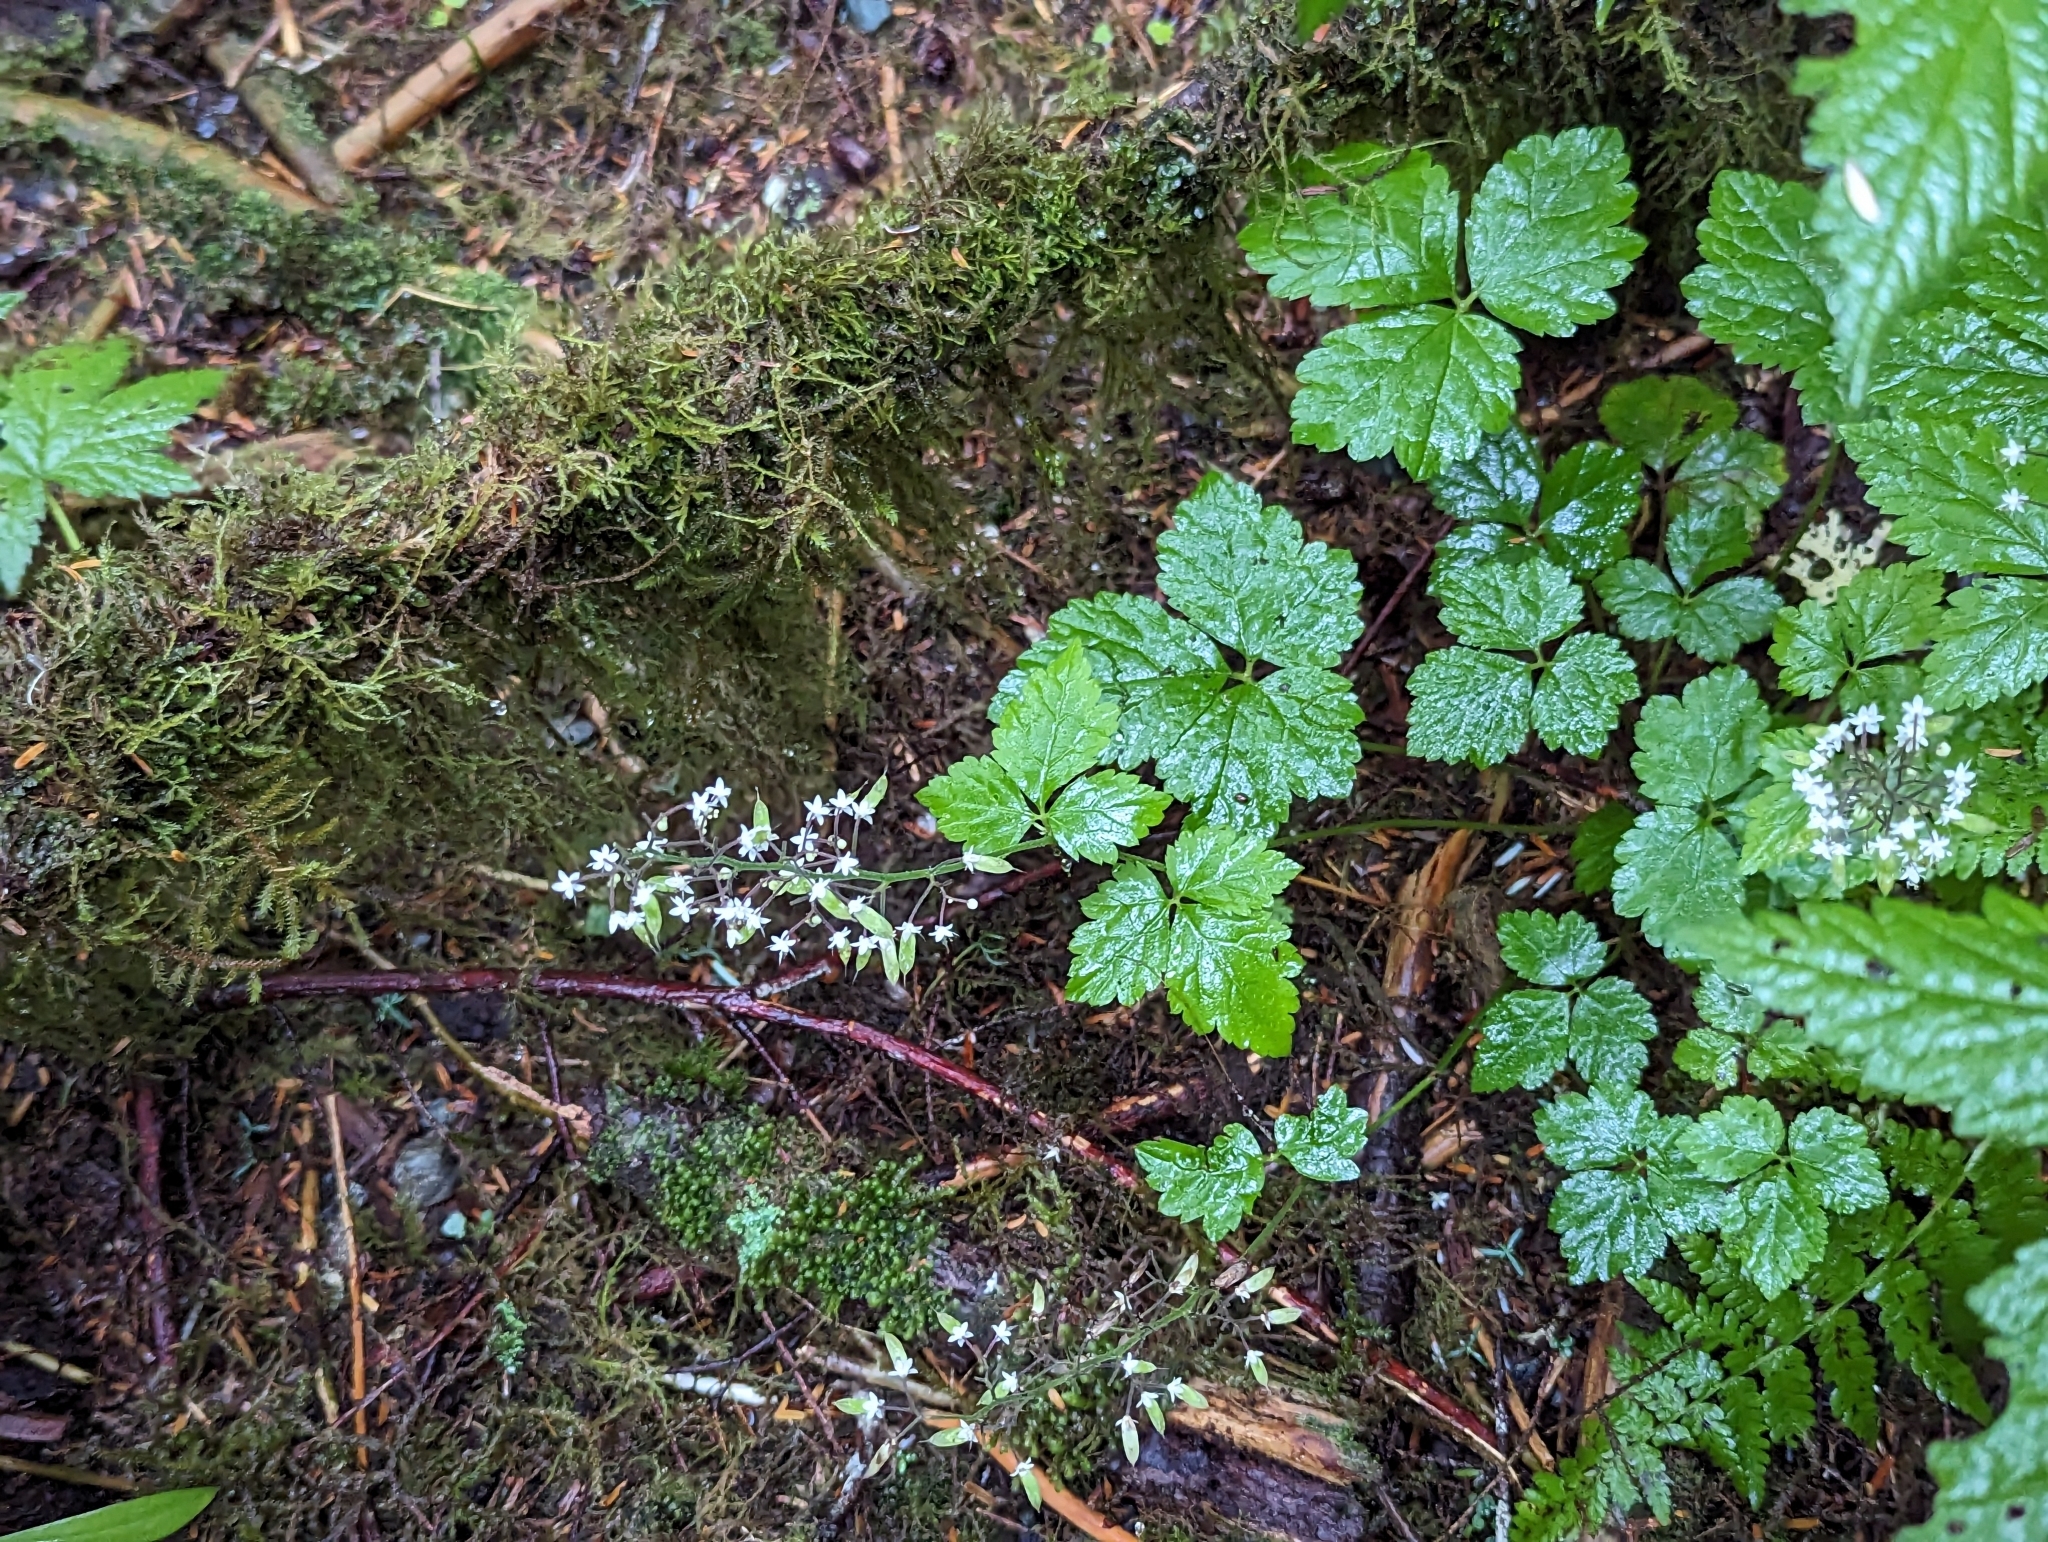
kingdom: Plantae
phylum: Tracheophyta
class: Magnoliopsida
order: Saxifragales
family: Saxifragaceae
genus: Tiarella
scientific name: Tiarella trifoliata
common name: Sugar-scoop
